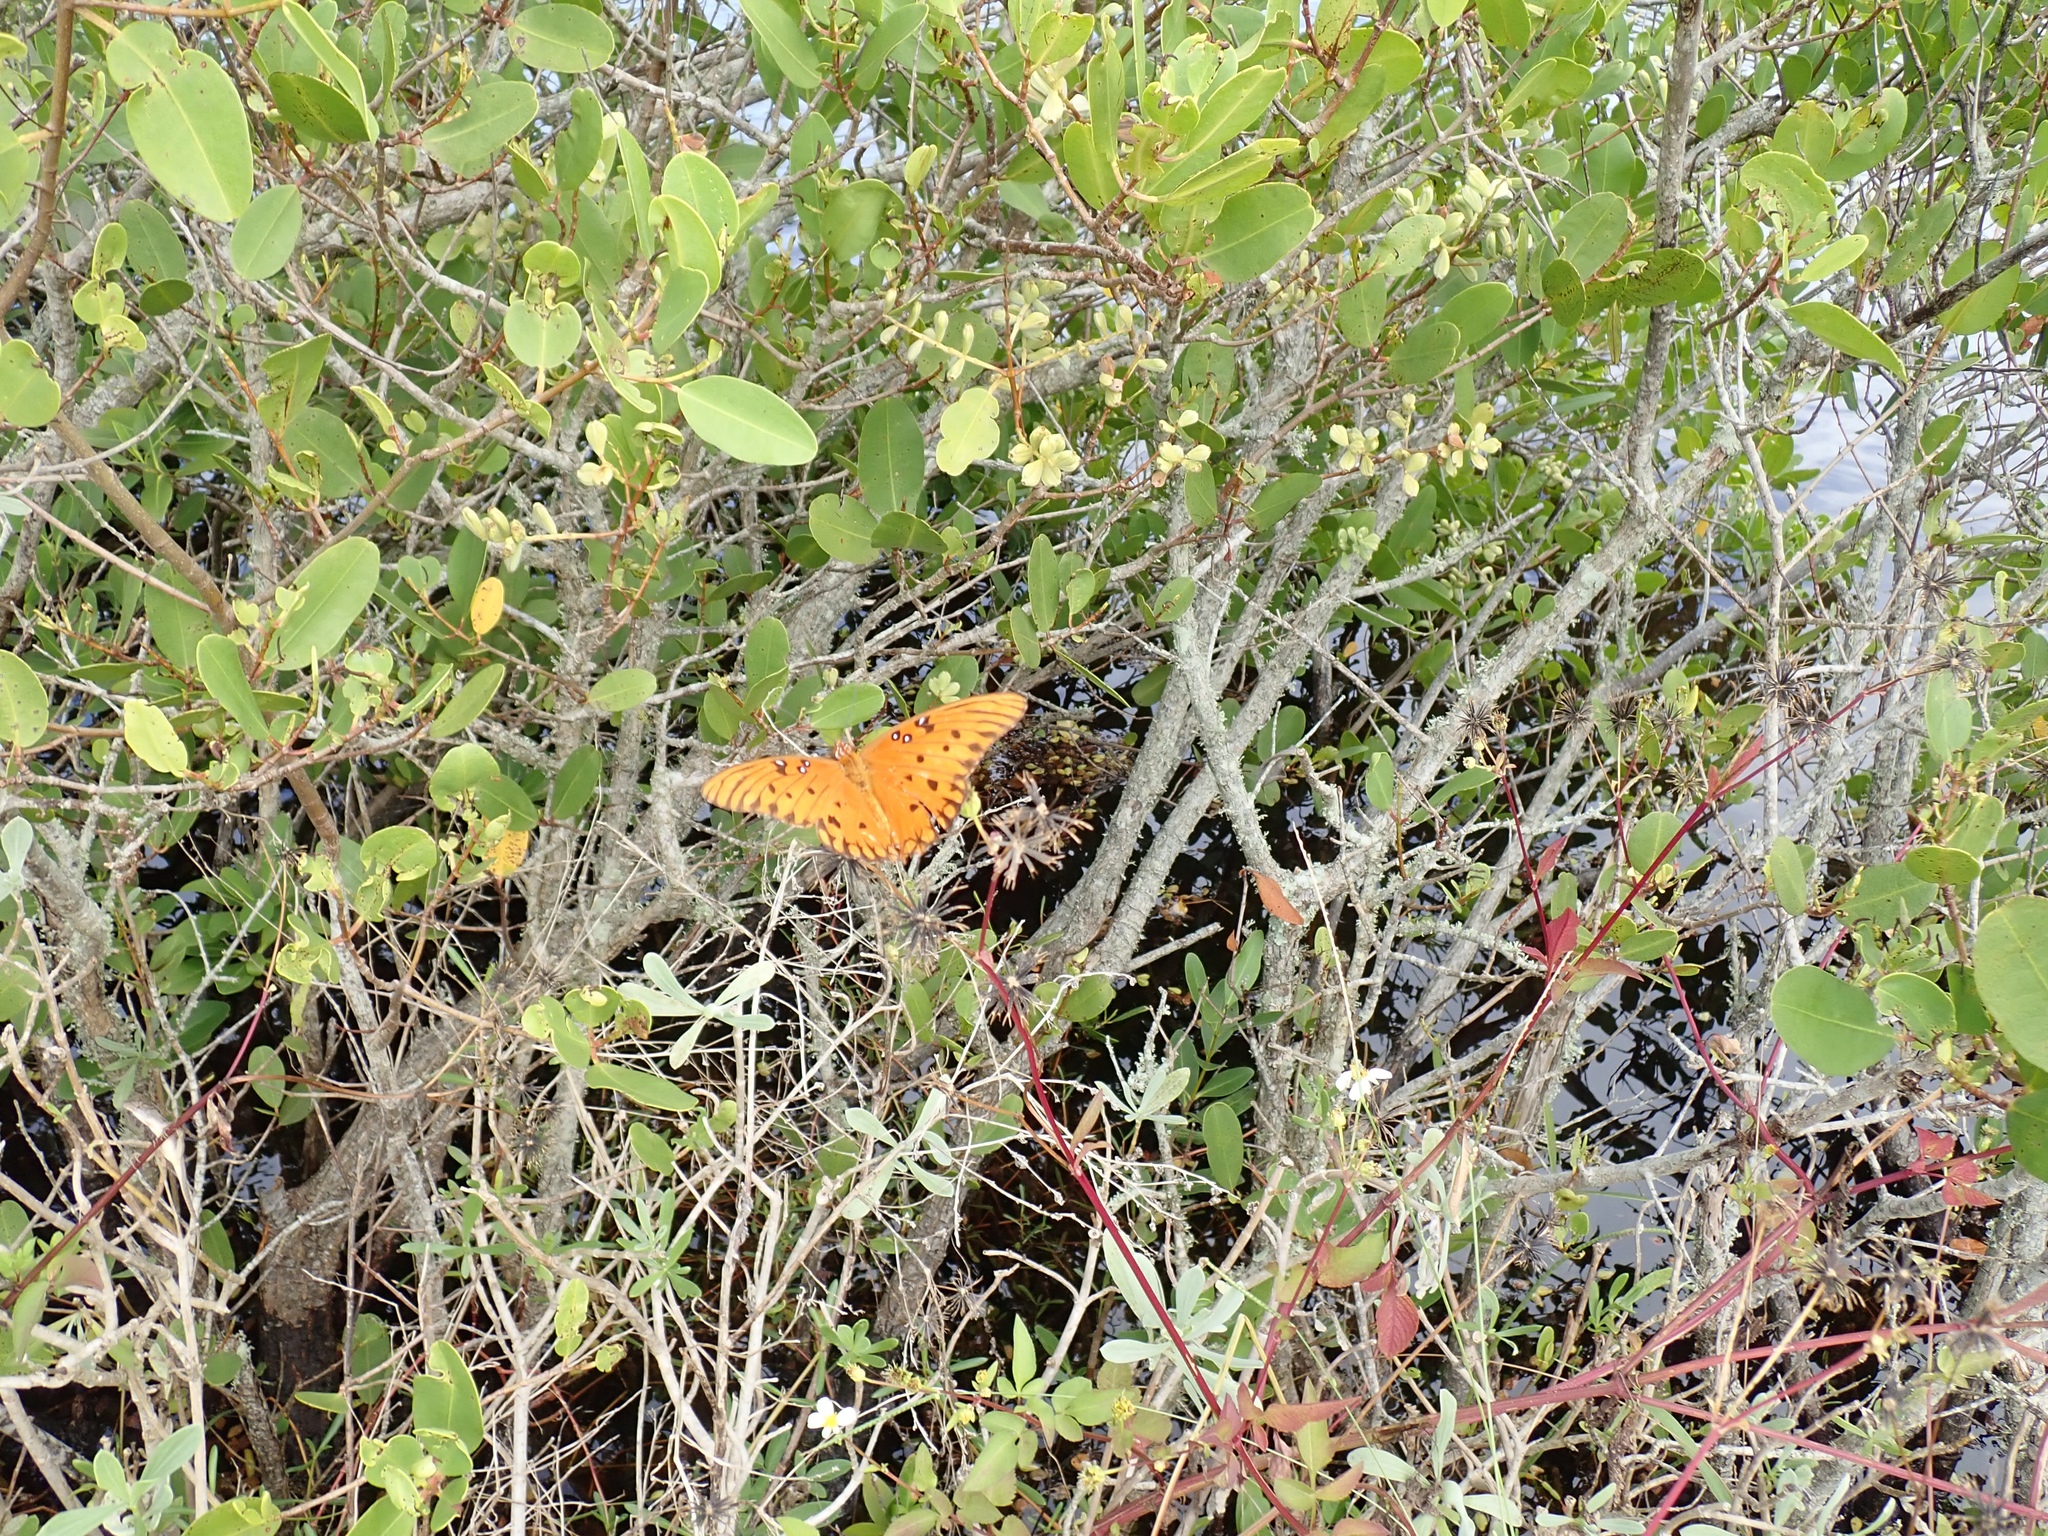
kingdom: Animalia
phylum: Arthropoda
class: Insecta
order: Lepidoptera
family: Nymphalidae
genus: Dione
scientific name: Dione vanillae
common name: Gulf fritillary
